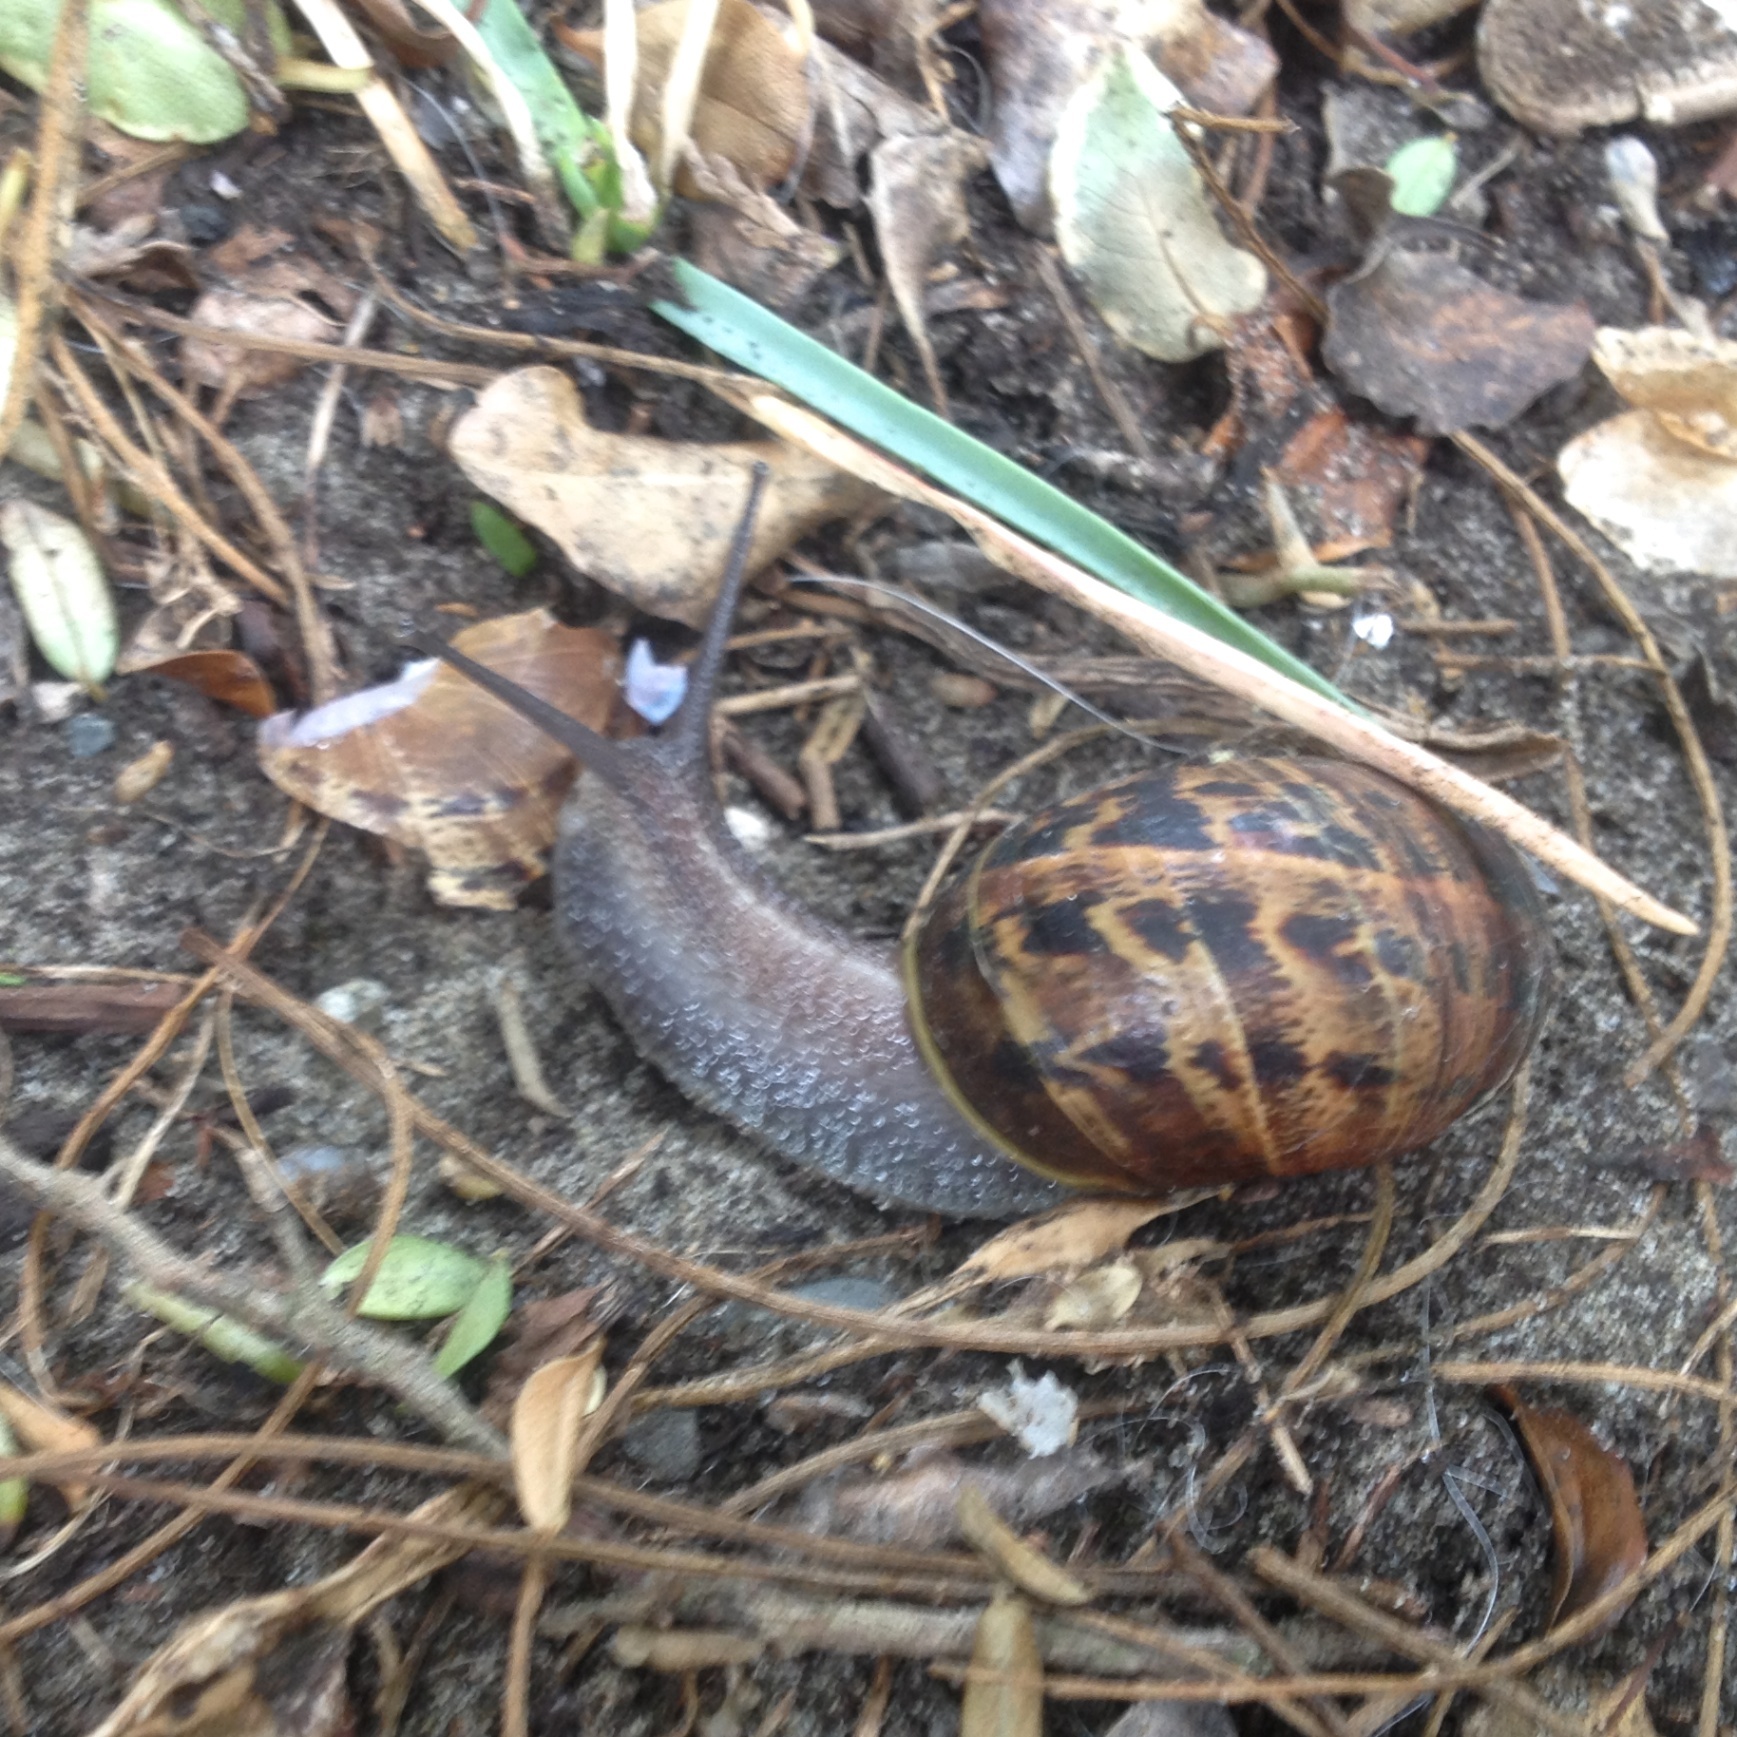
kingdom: Animalia
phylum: Mollusca
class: Gastropoda
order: Stylommatophora
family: Helicidae
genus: Cornu
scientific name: Cornu aspersum
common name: Brown garden snail
